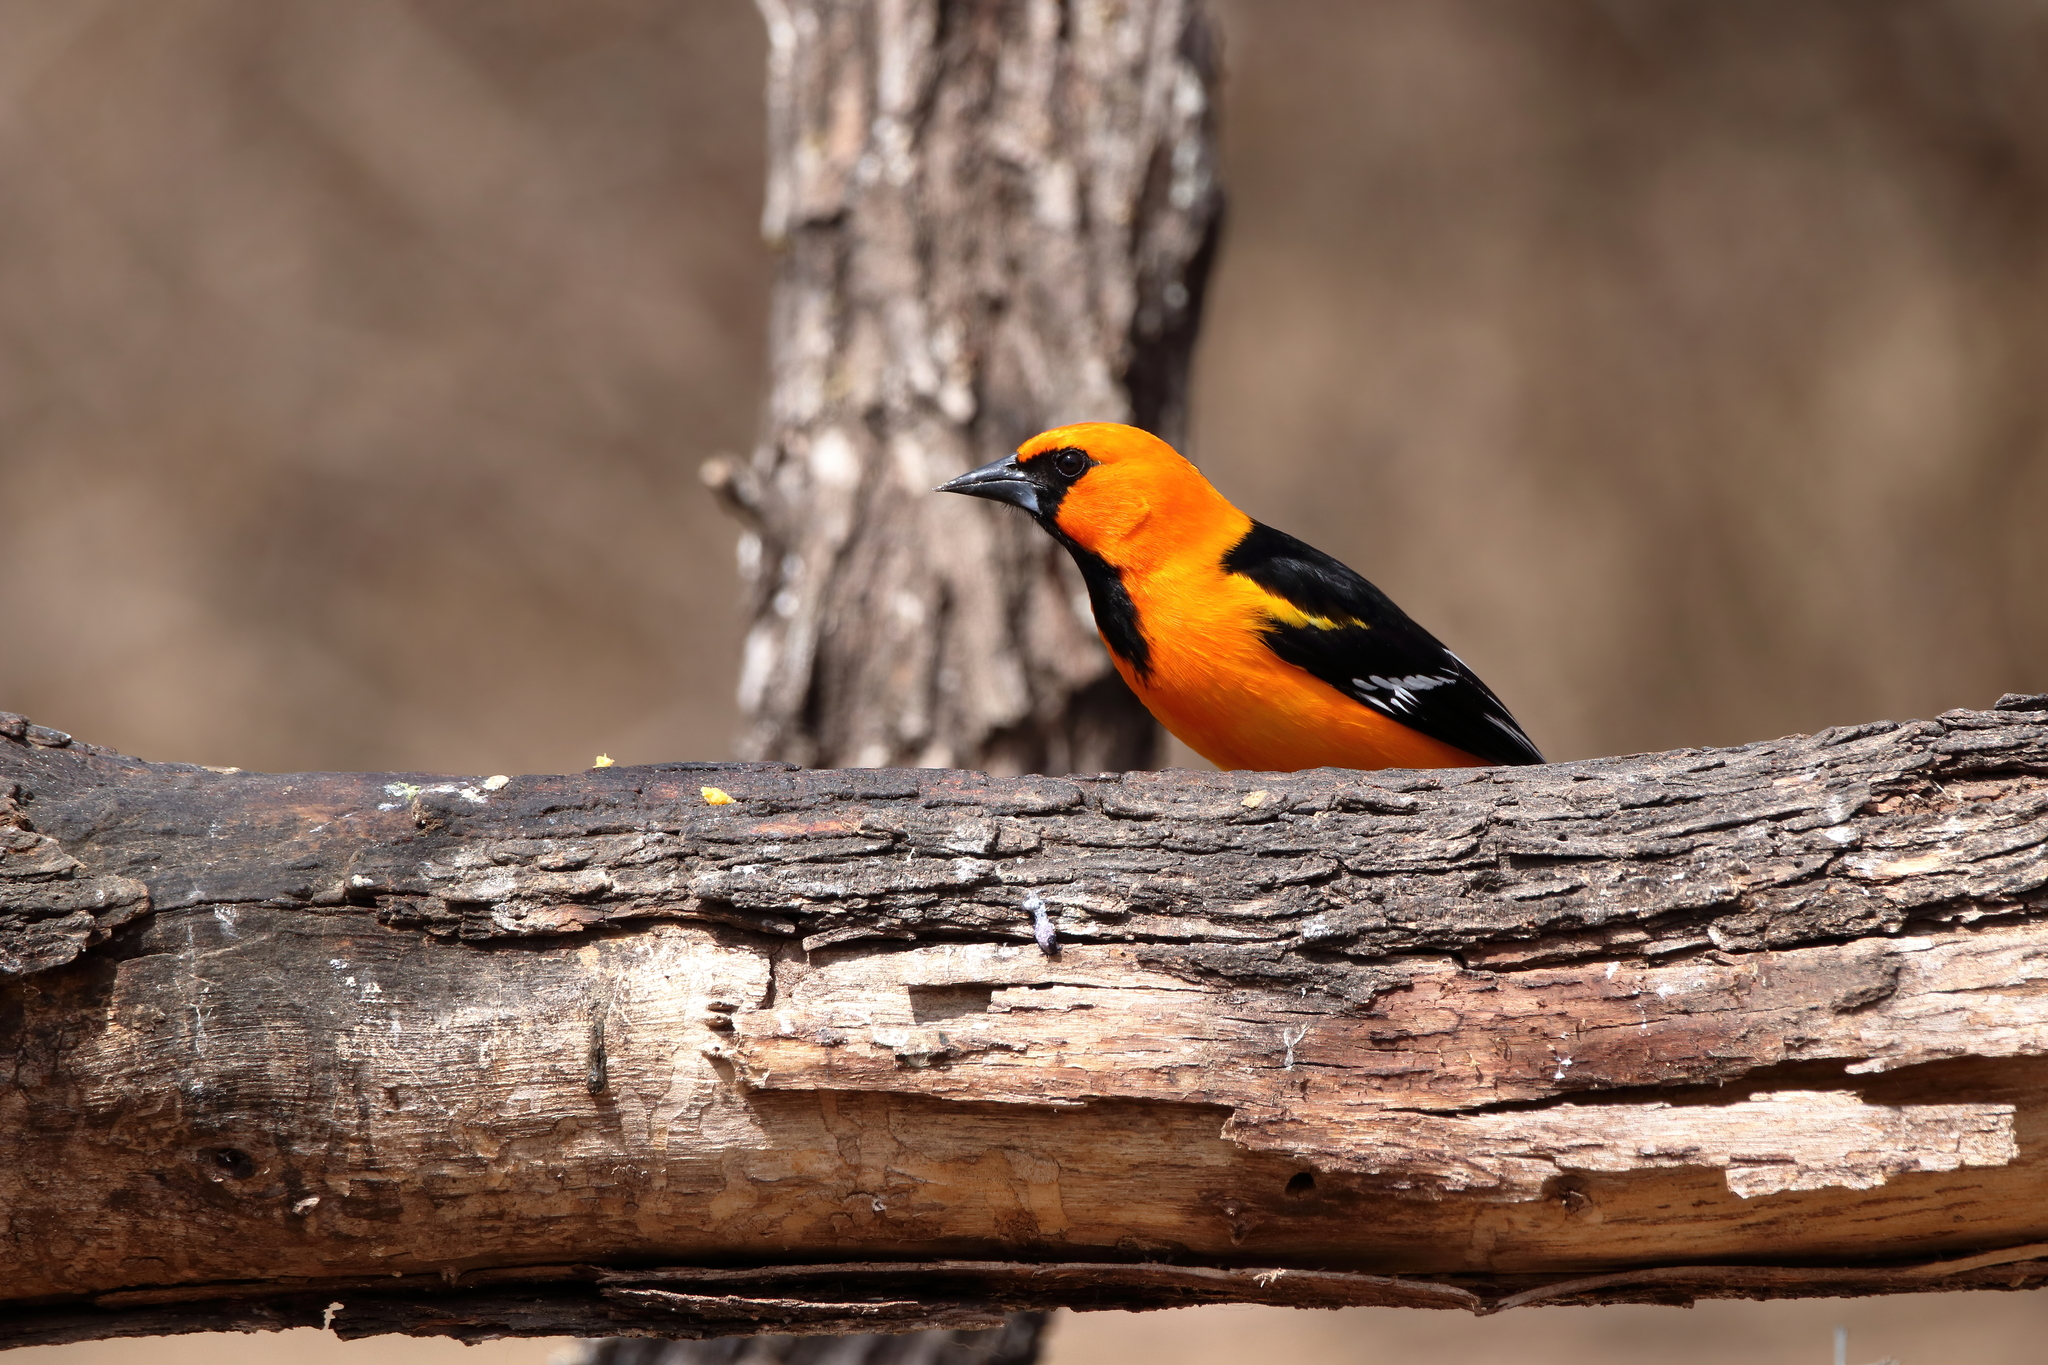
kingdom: Animalia
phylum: Chordata
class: Aves
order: Passeriformes
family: Icteridae
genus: Icterus
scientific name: Icterus gularis
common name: Altamira oriole
